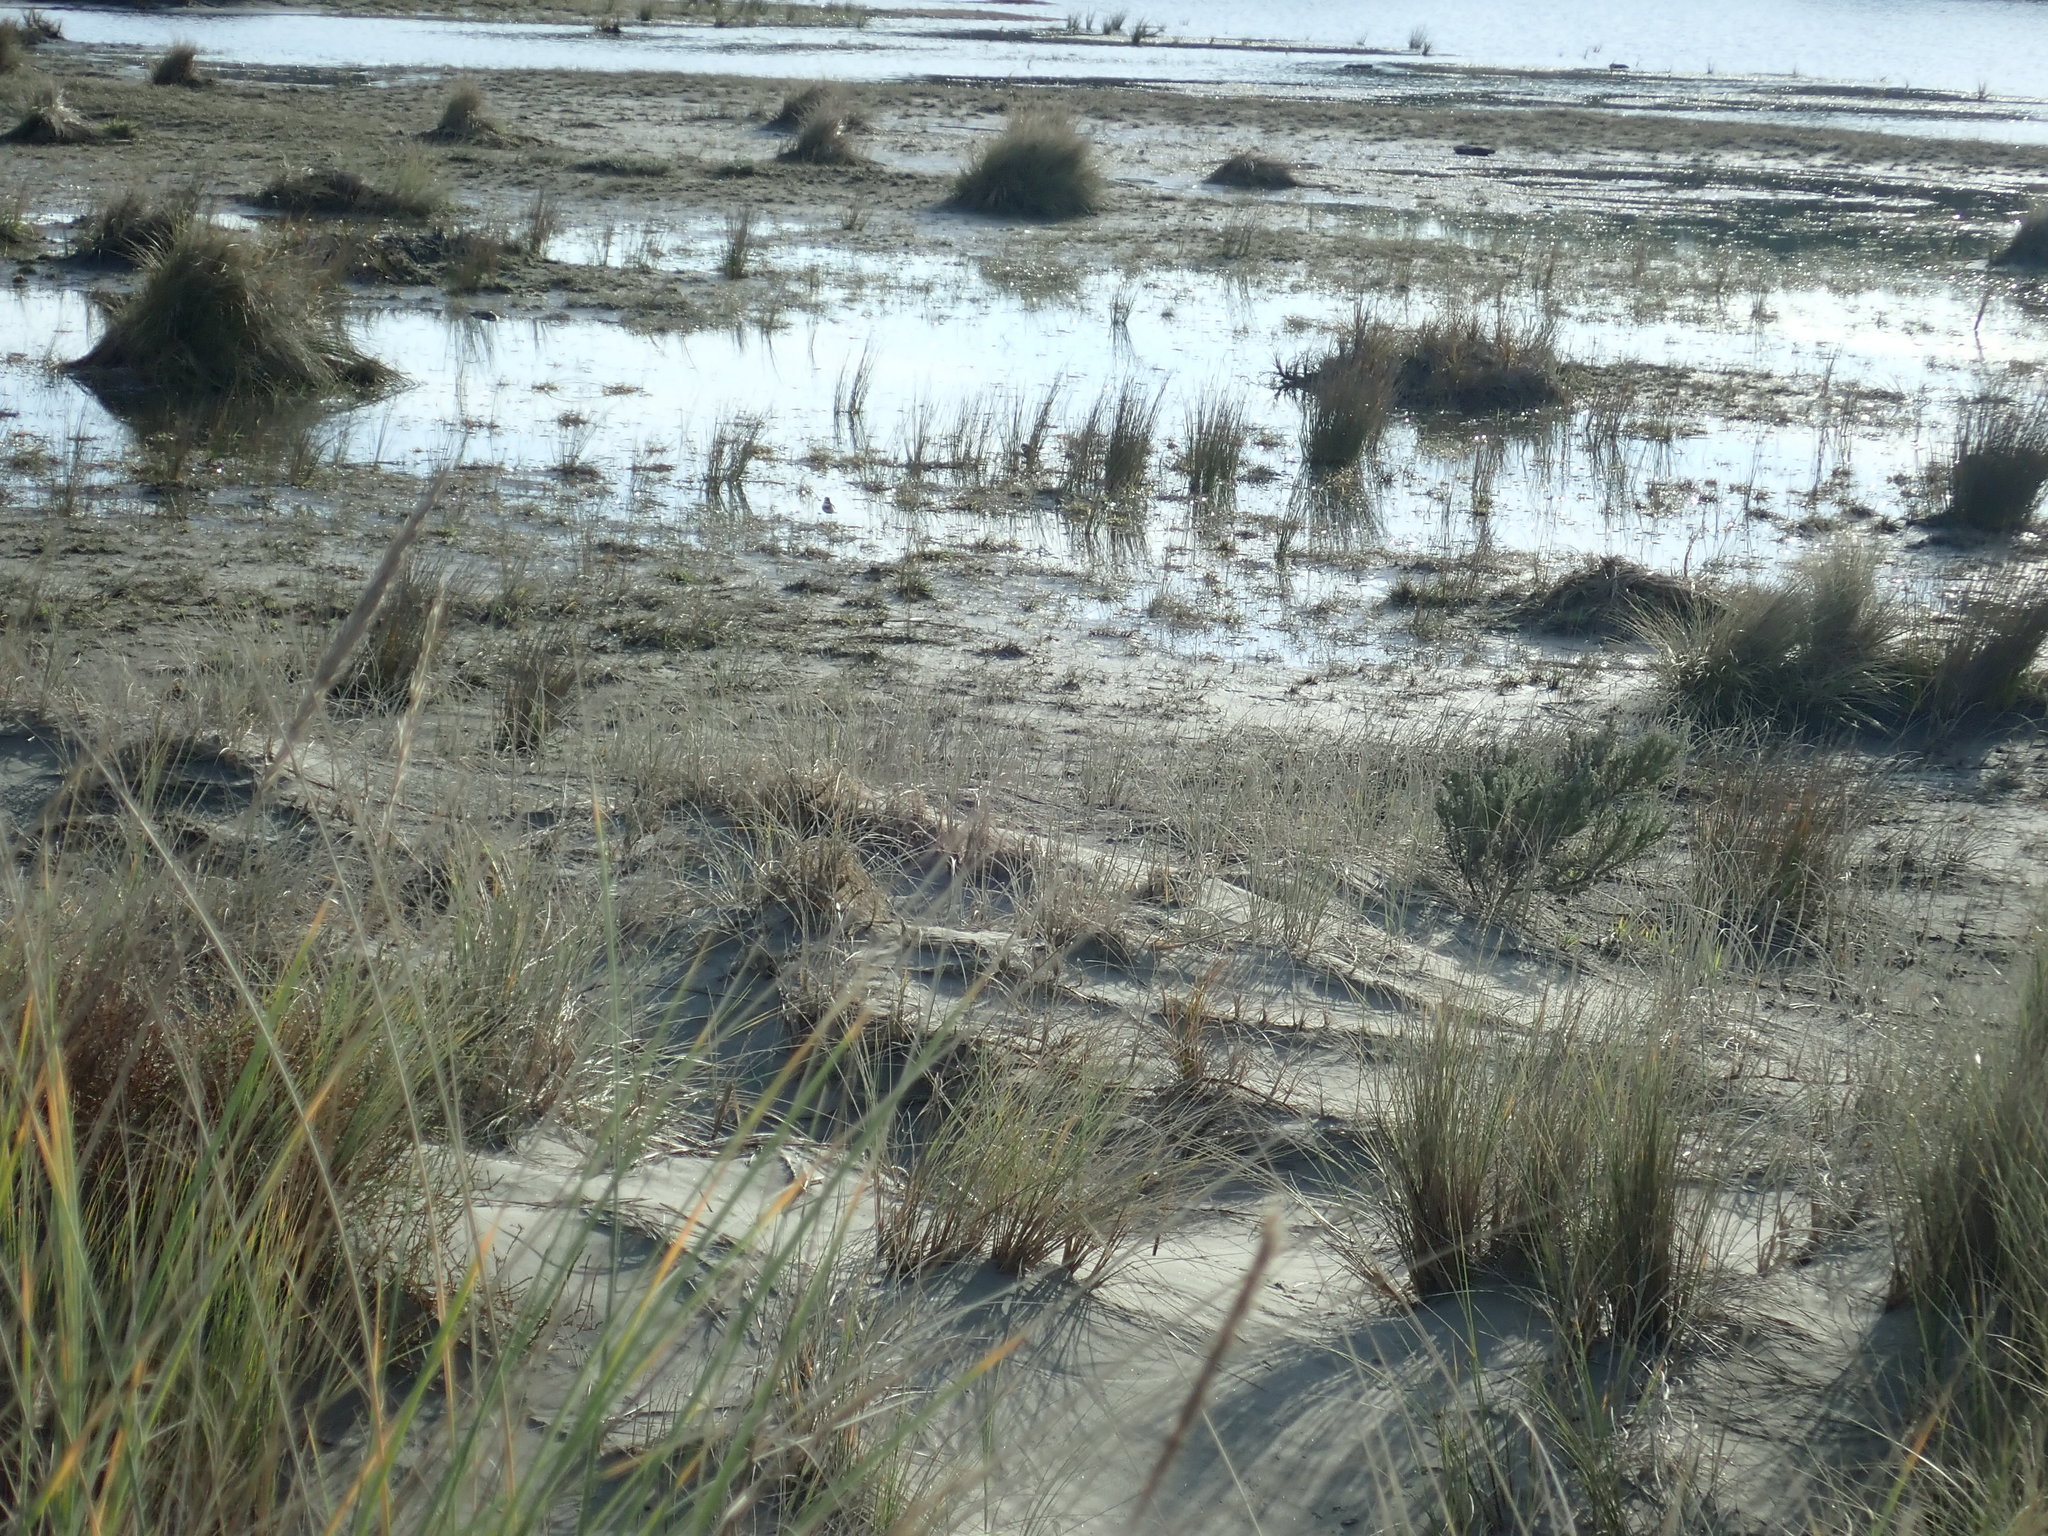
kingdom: Animalia
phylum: Chordata
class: Aves
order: Charadriiformes
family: Charadriidae
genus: Anarhynchus
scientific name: Anarhynchus
